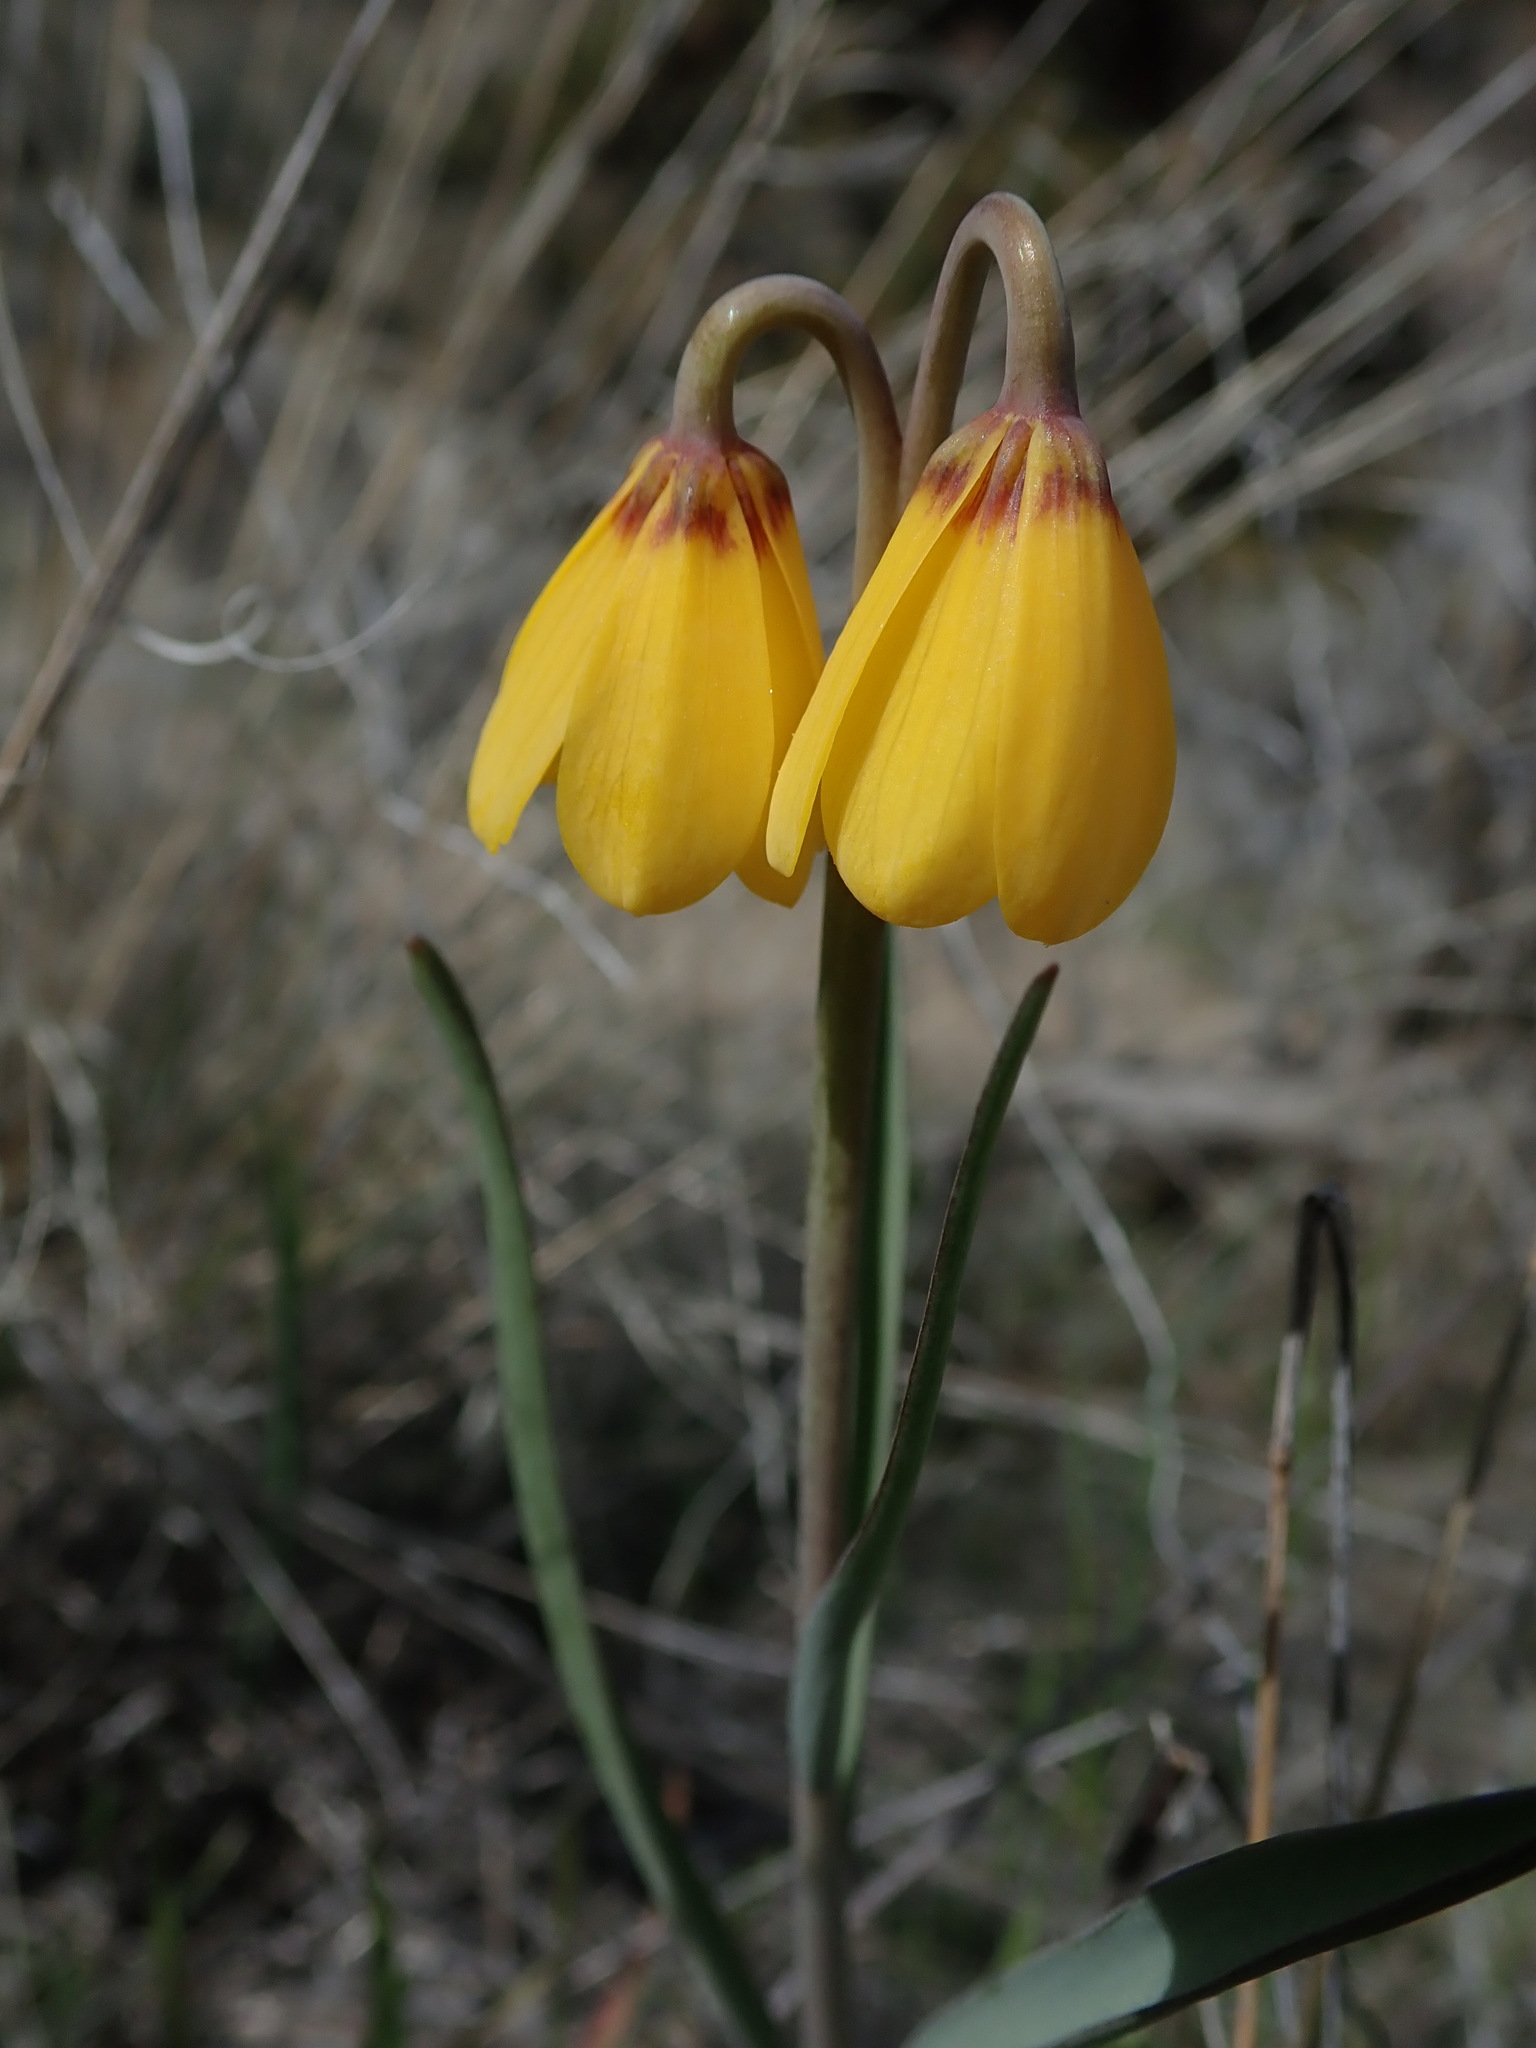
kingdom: Plantae
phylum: Tracheophyta
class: Liliopsida
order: Liliales
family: Liliaceae
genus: Fritillaria
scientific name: Fritillaria pudica
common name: Yellow fritillary
